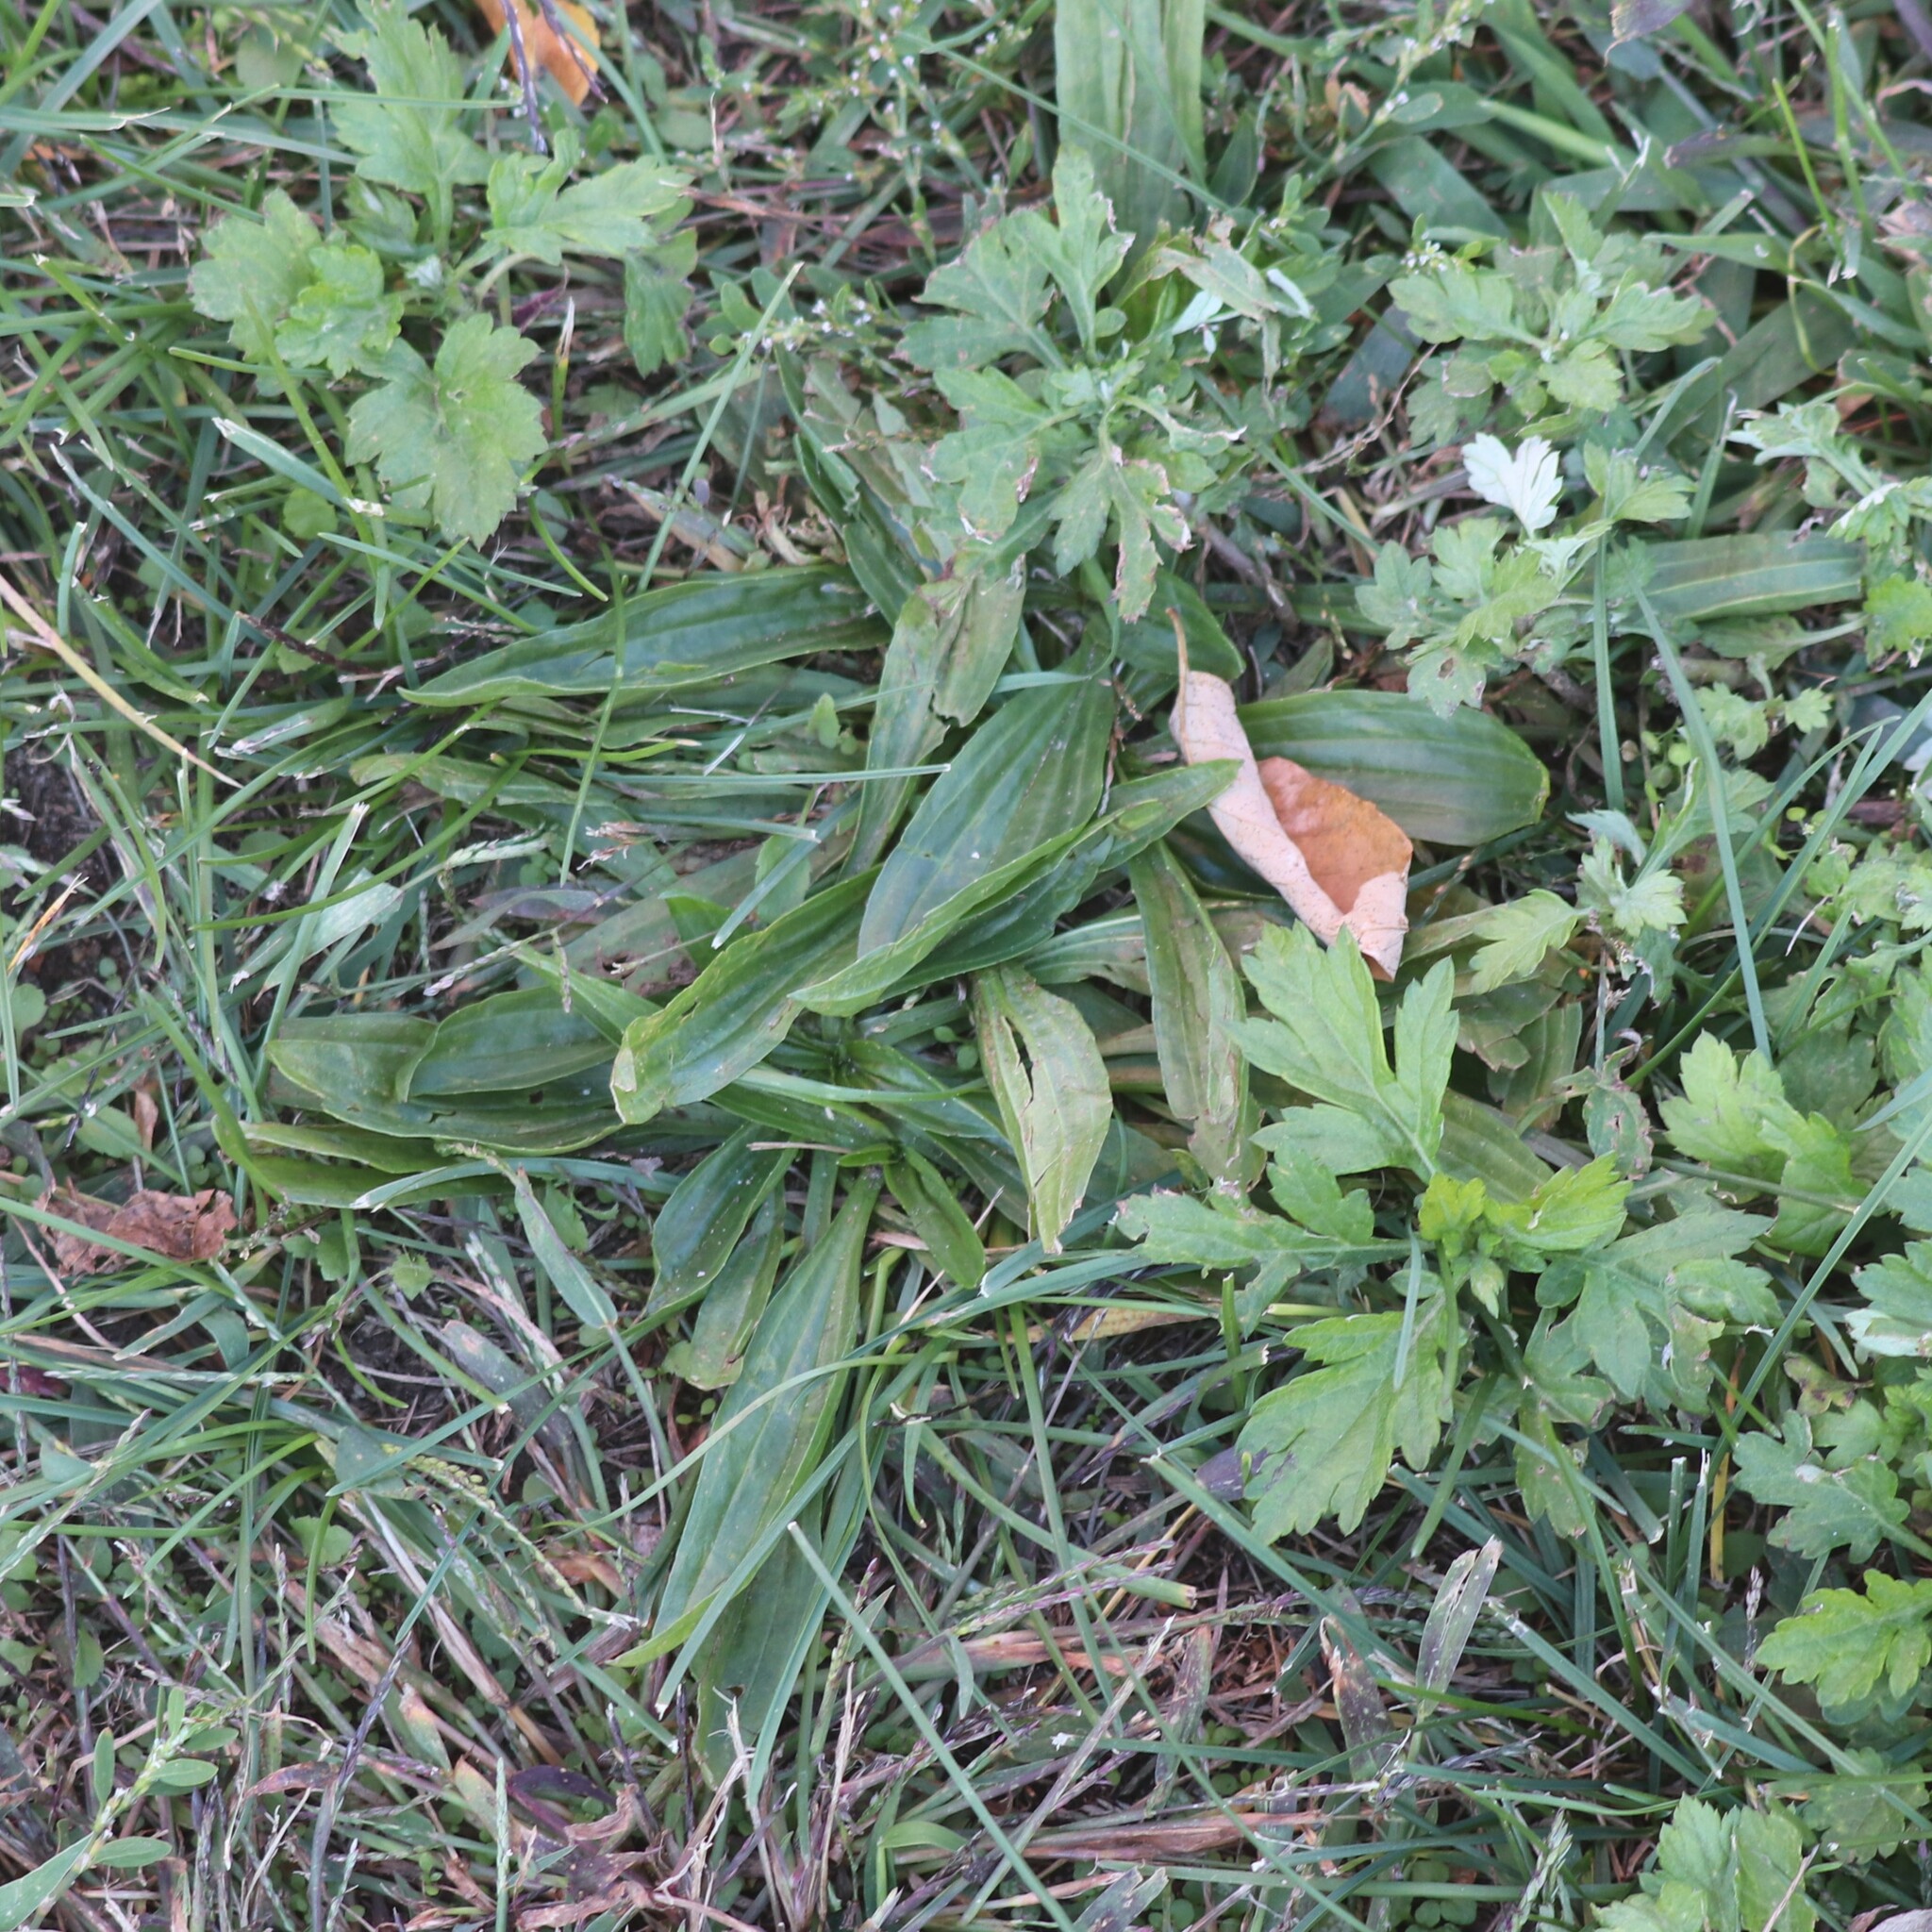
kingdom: Plantae
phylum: Tracheophyta
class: Magnoliopsida
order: Lamiales
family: Plantaginaceae
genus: Plantago
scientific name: Plantago lanceolata
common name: Ribwort plantain
